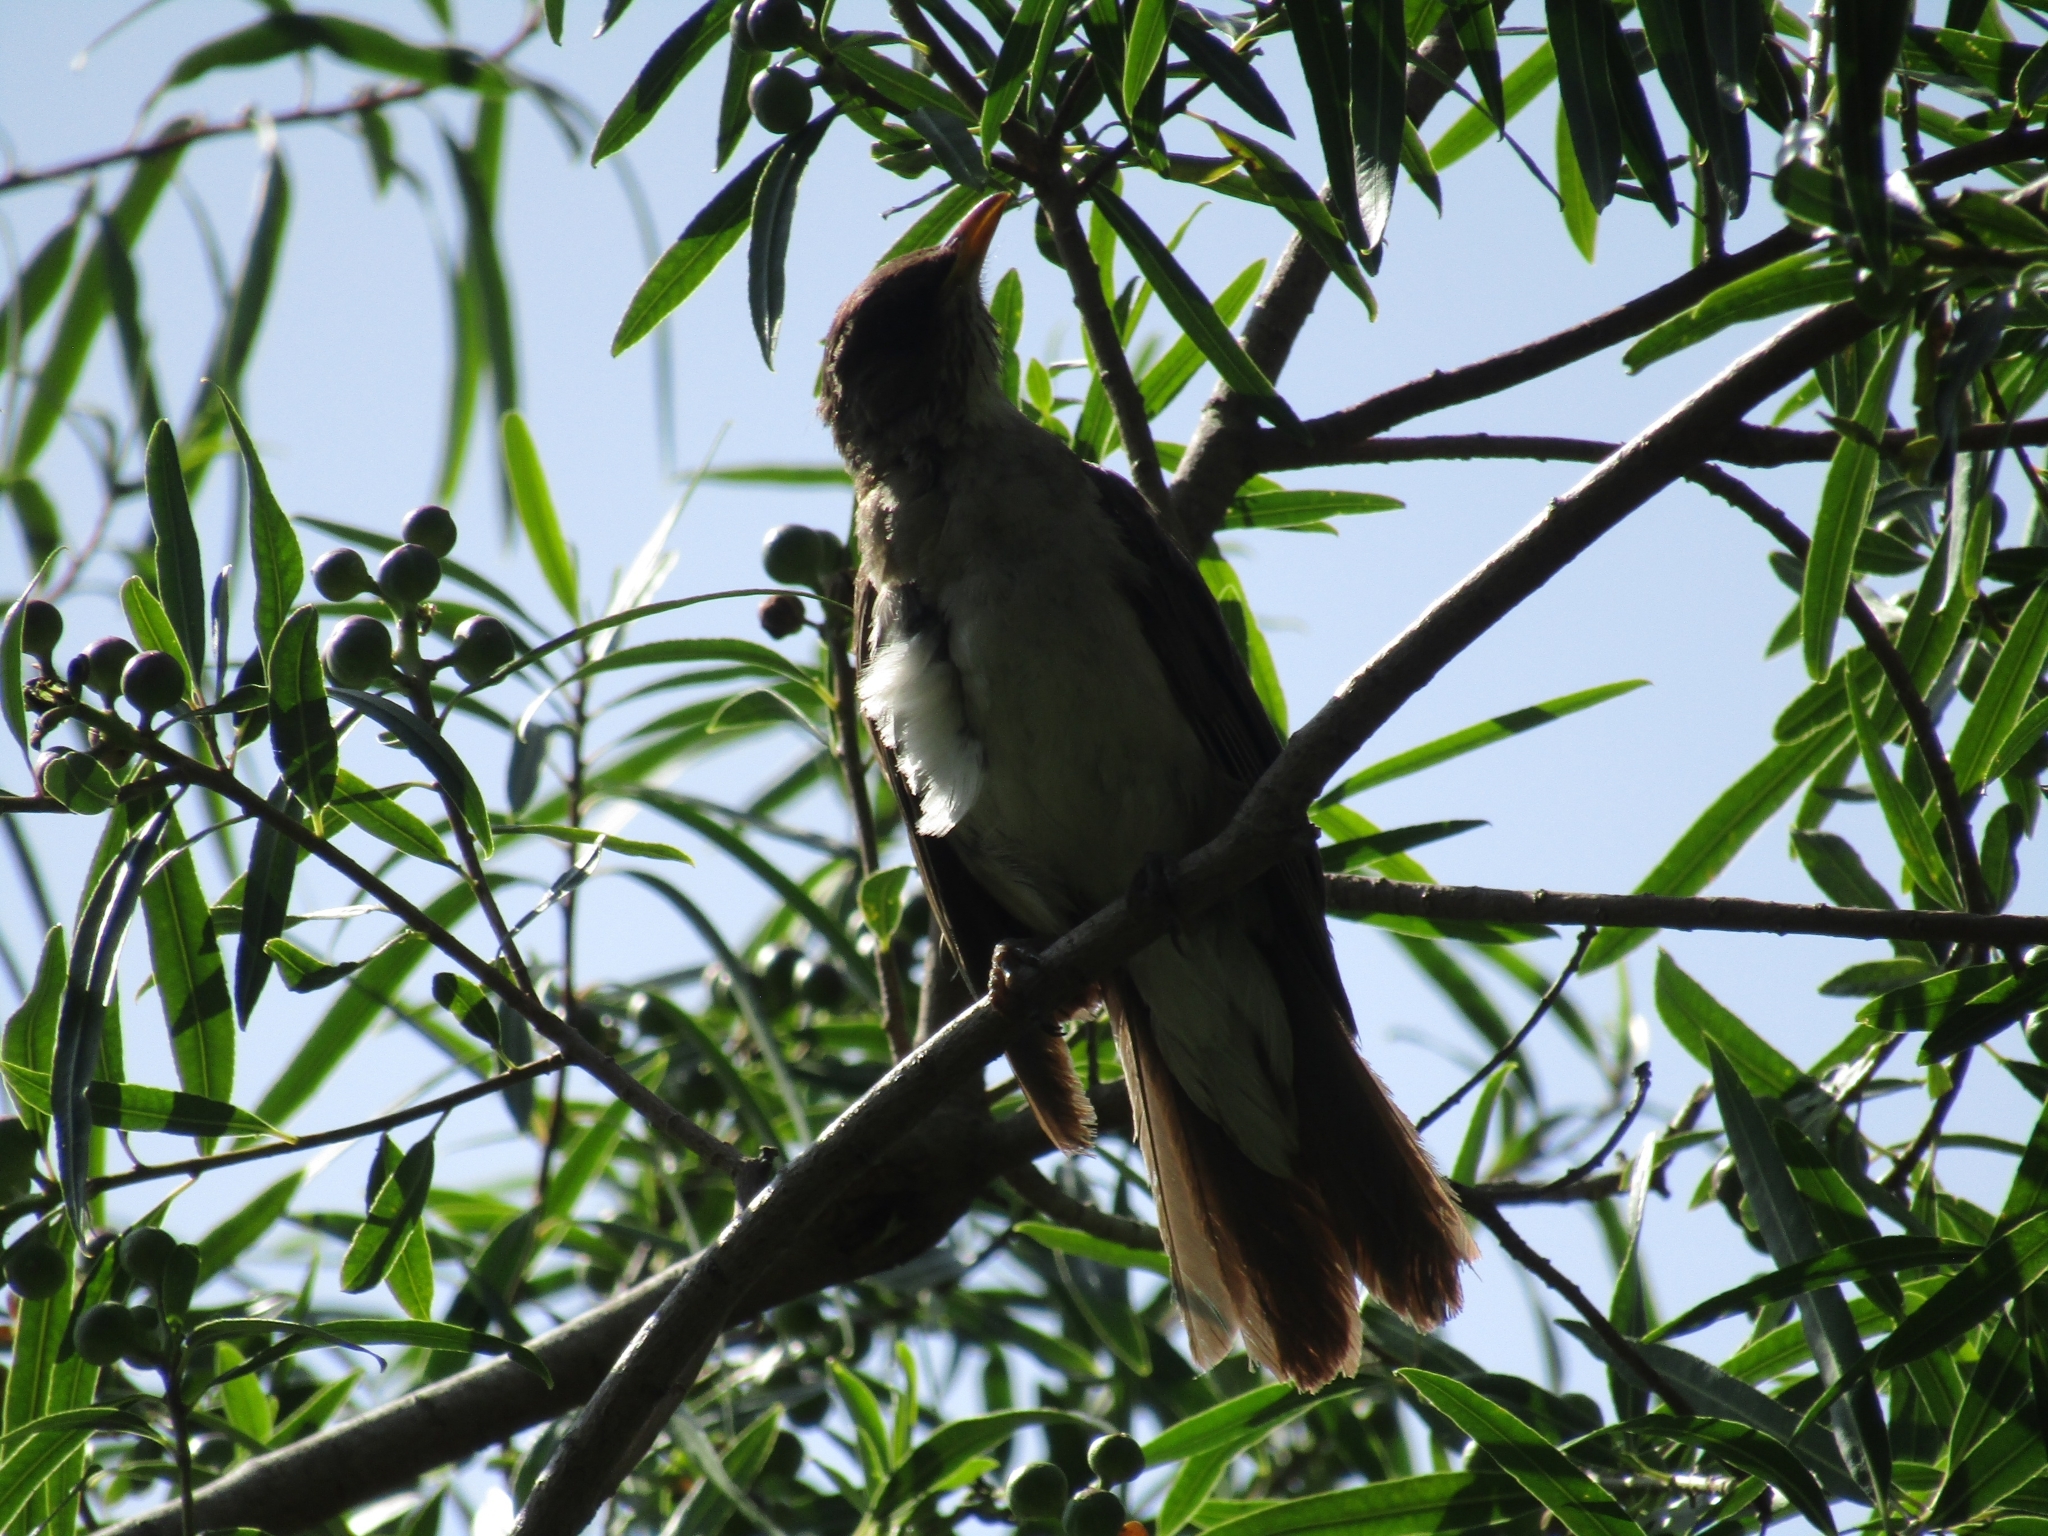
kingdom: Animalia
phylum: Chordata
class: Aves
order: Passeriformes
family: Turdidae
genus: Turdus
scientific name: Turdus amaurochalinus
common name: Creamy-bellied thrush
